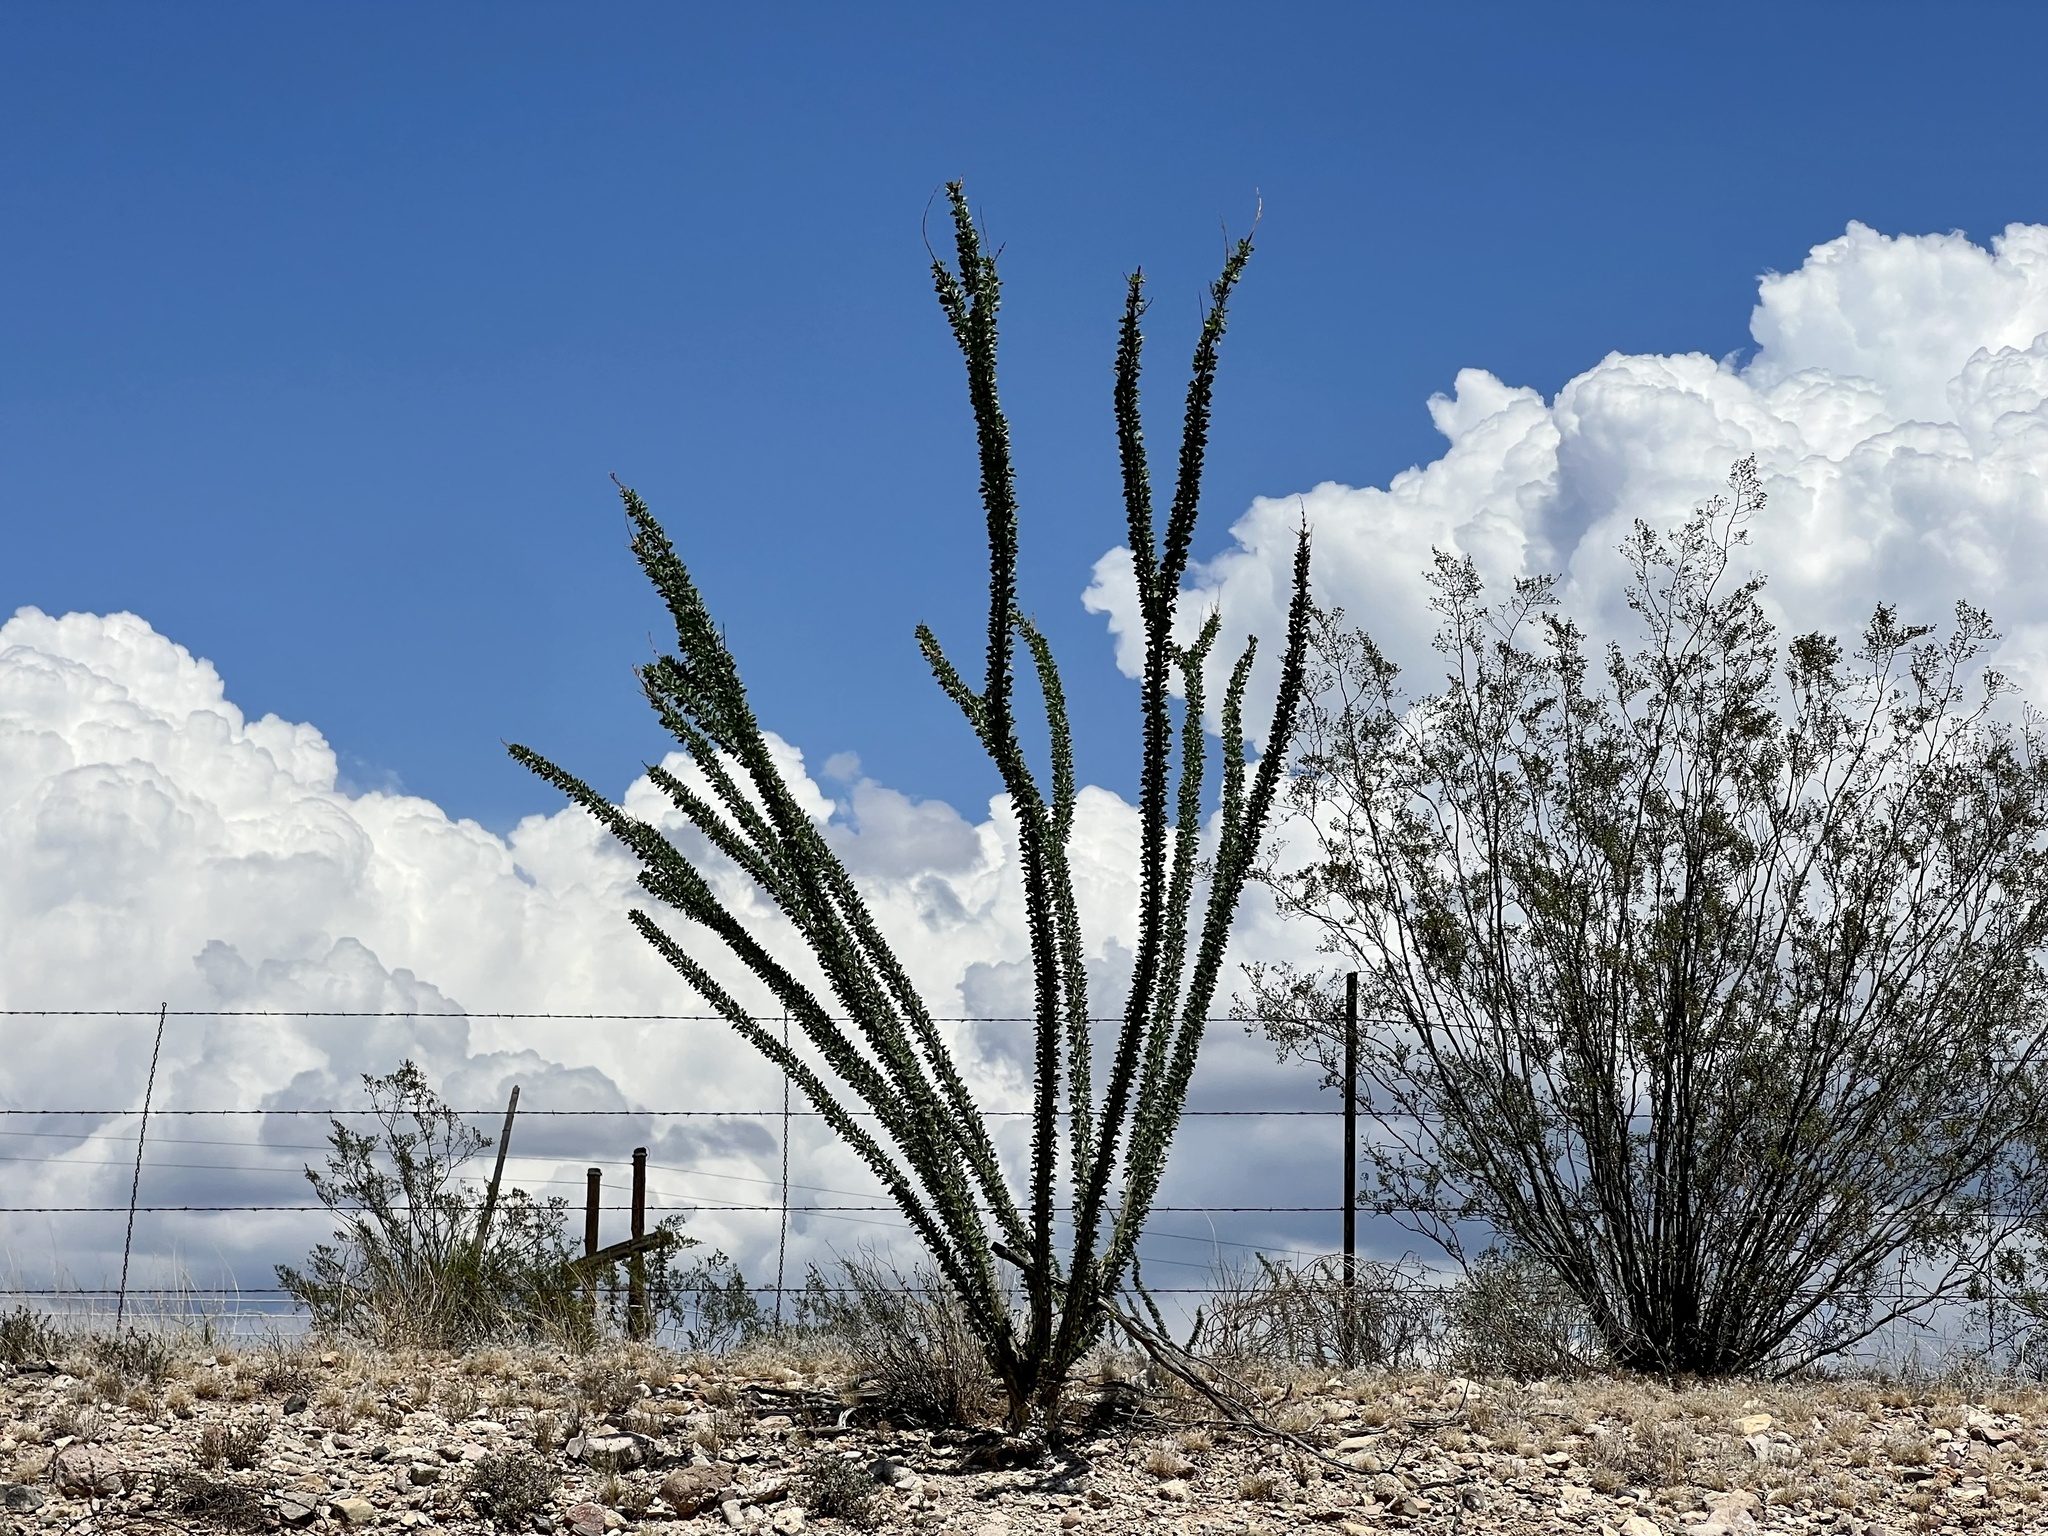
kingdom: Plantae
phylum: Tracheophyta
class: Magnoliopsida
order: Ericales
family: Fouquieriaceae
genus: Fouquieria
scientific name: Fouquieria splendens
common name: Vine-cactus
